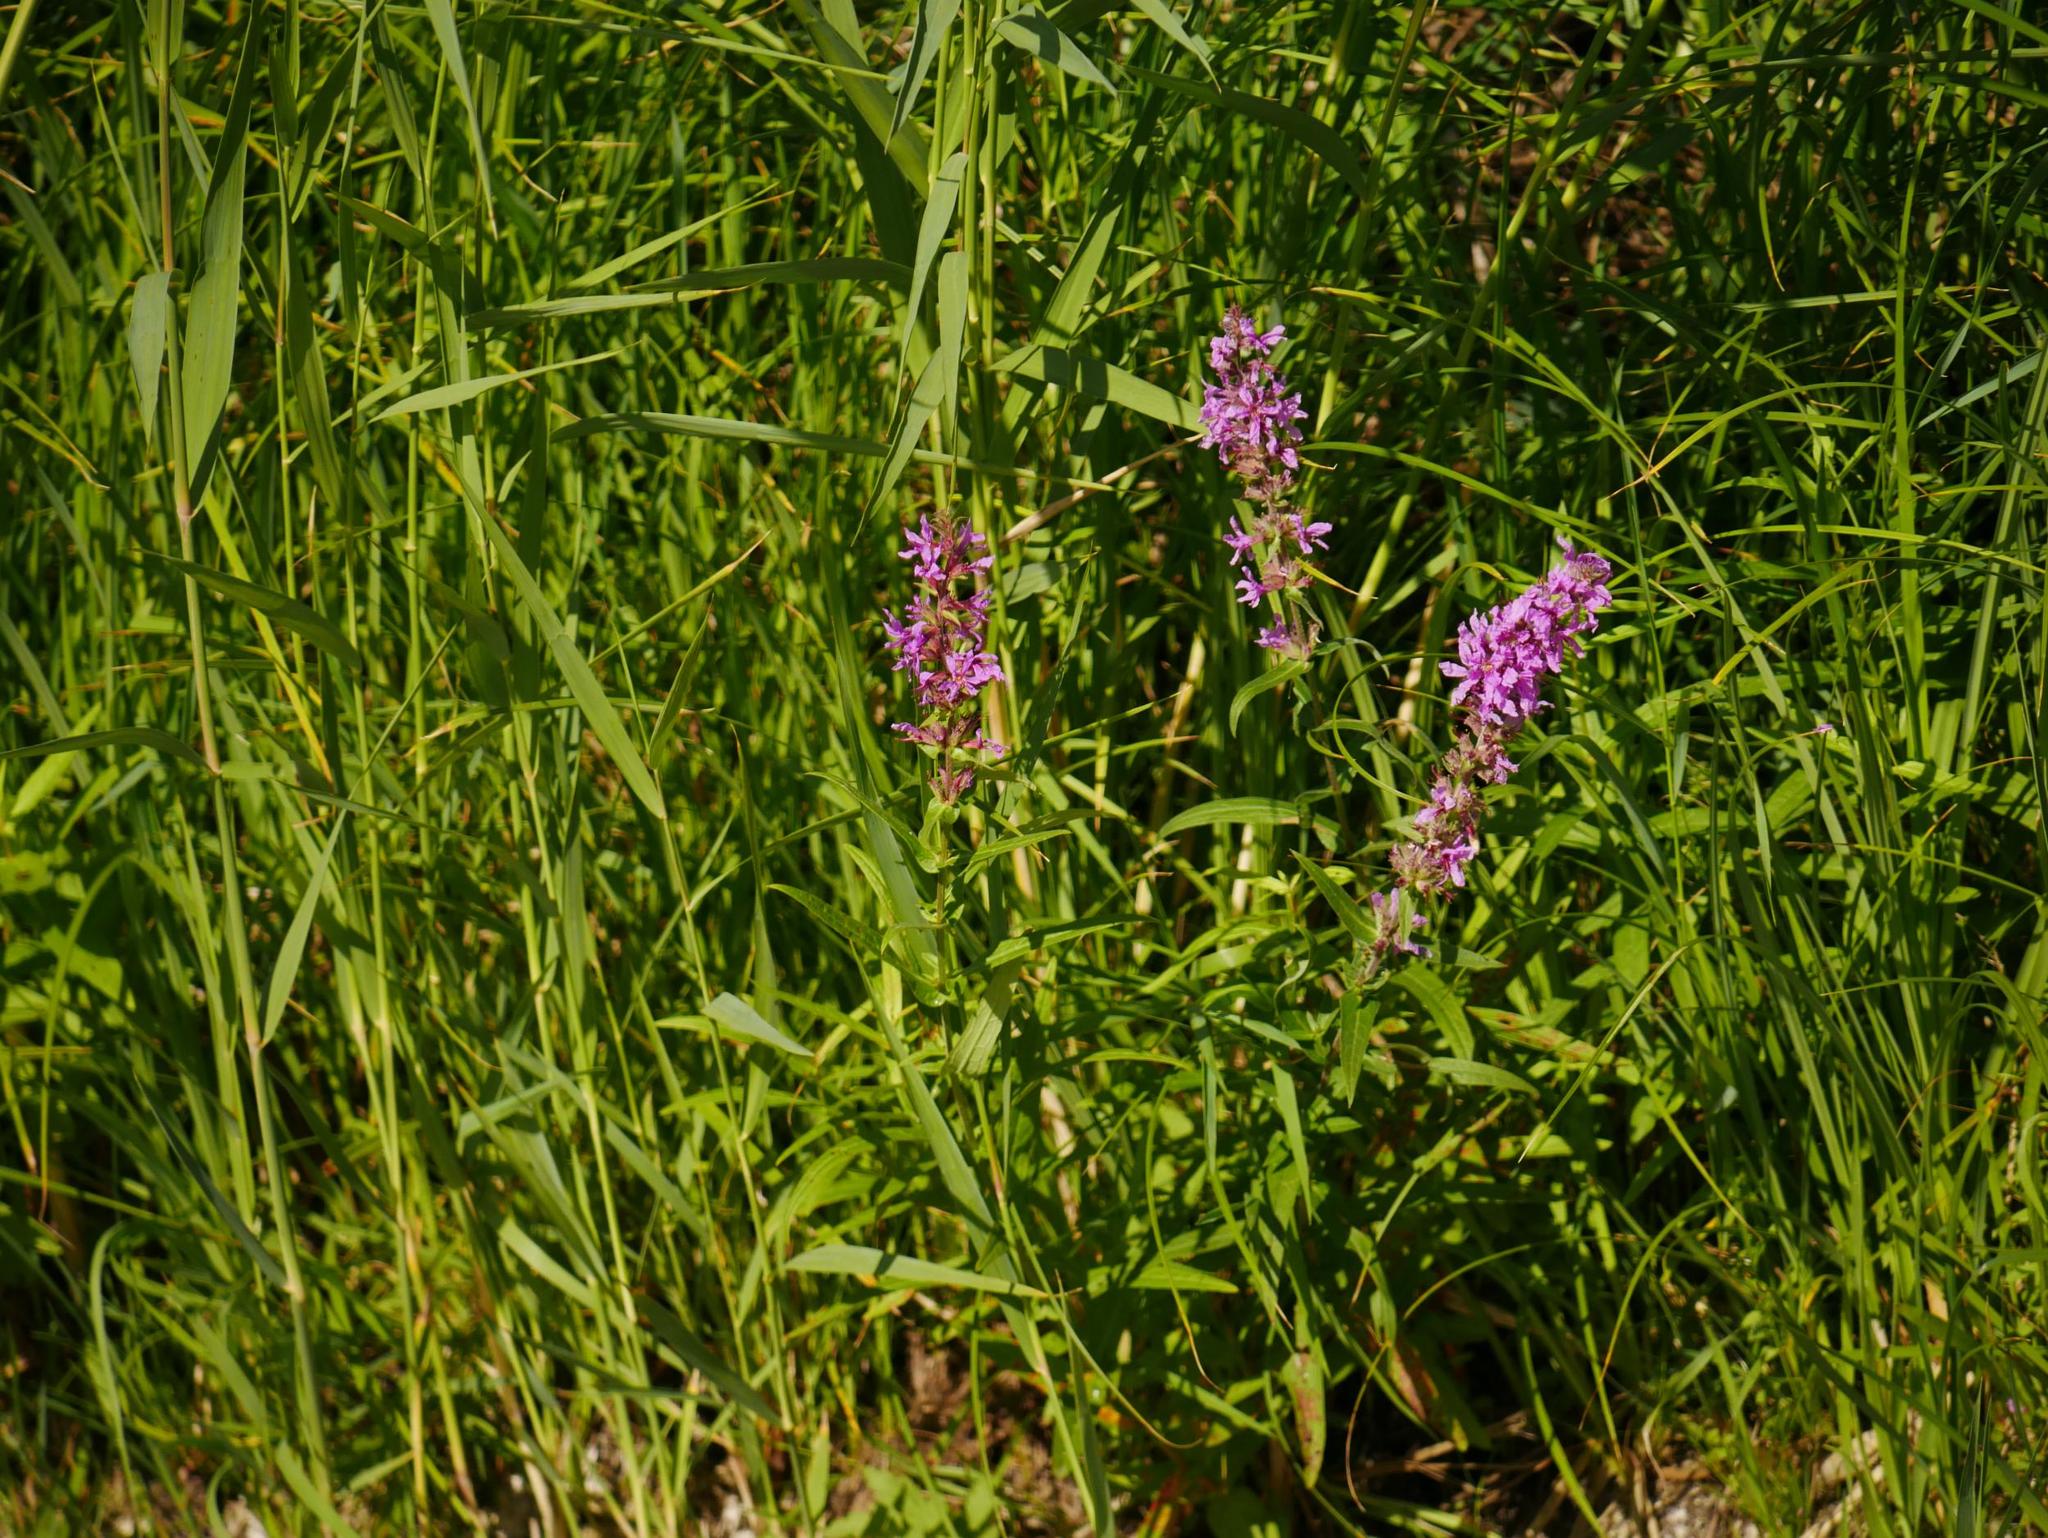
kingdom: Plantae
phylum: Tracheophyta
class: Magnoliopsida
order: Myrtales
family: Lythraceae
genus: Lythrum
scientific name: Lythrum salicaria
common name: Purple loosestrife
